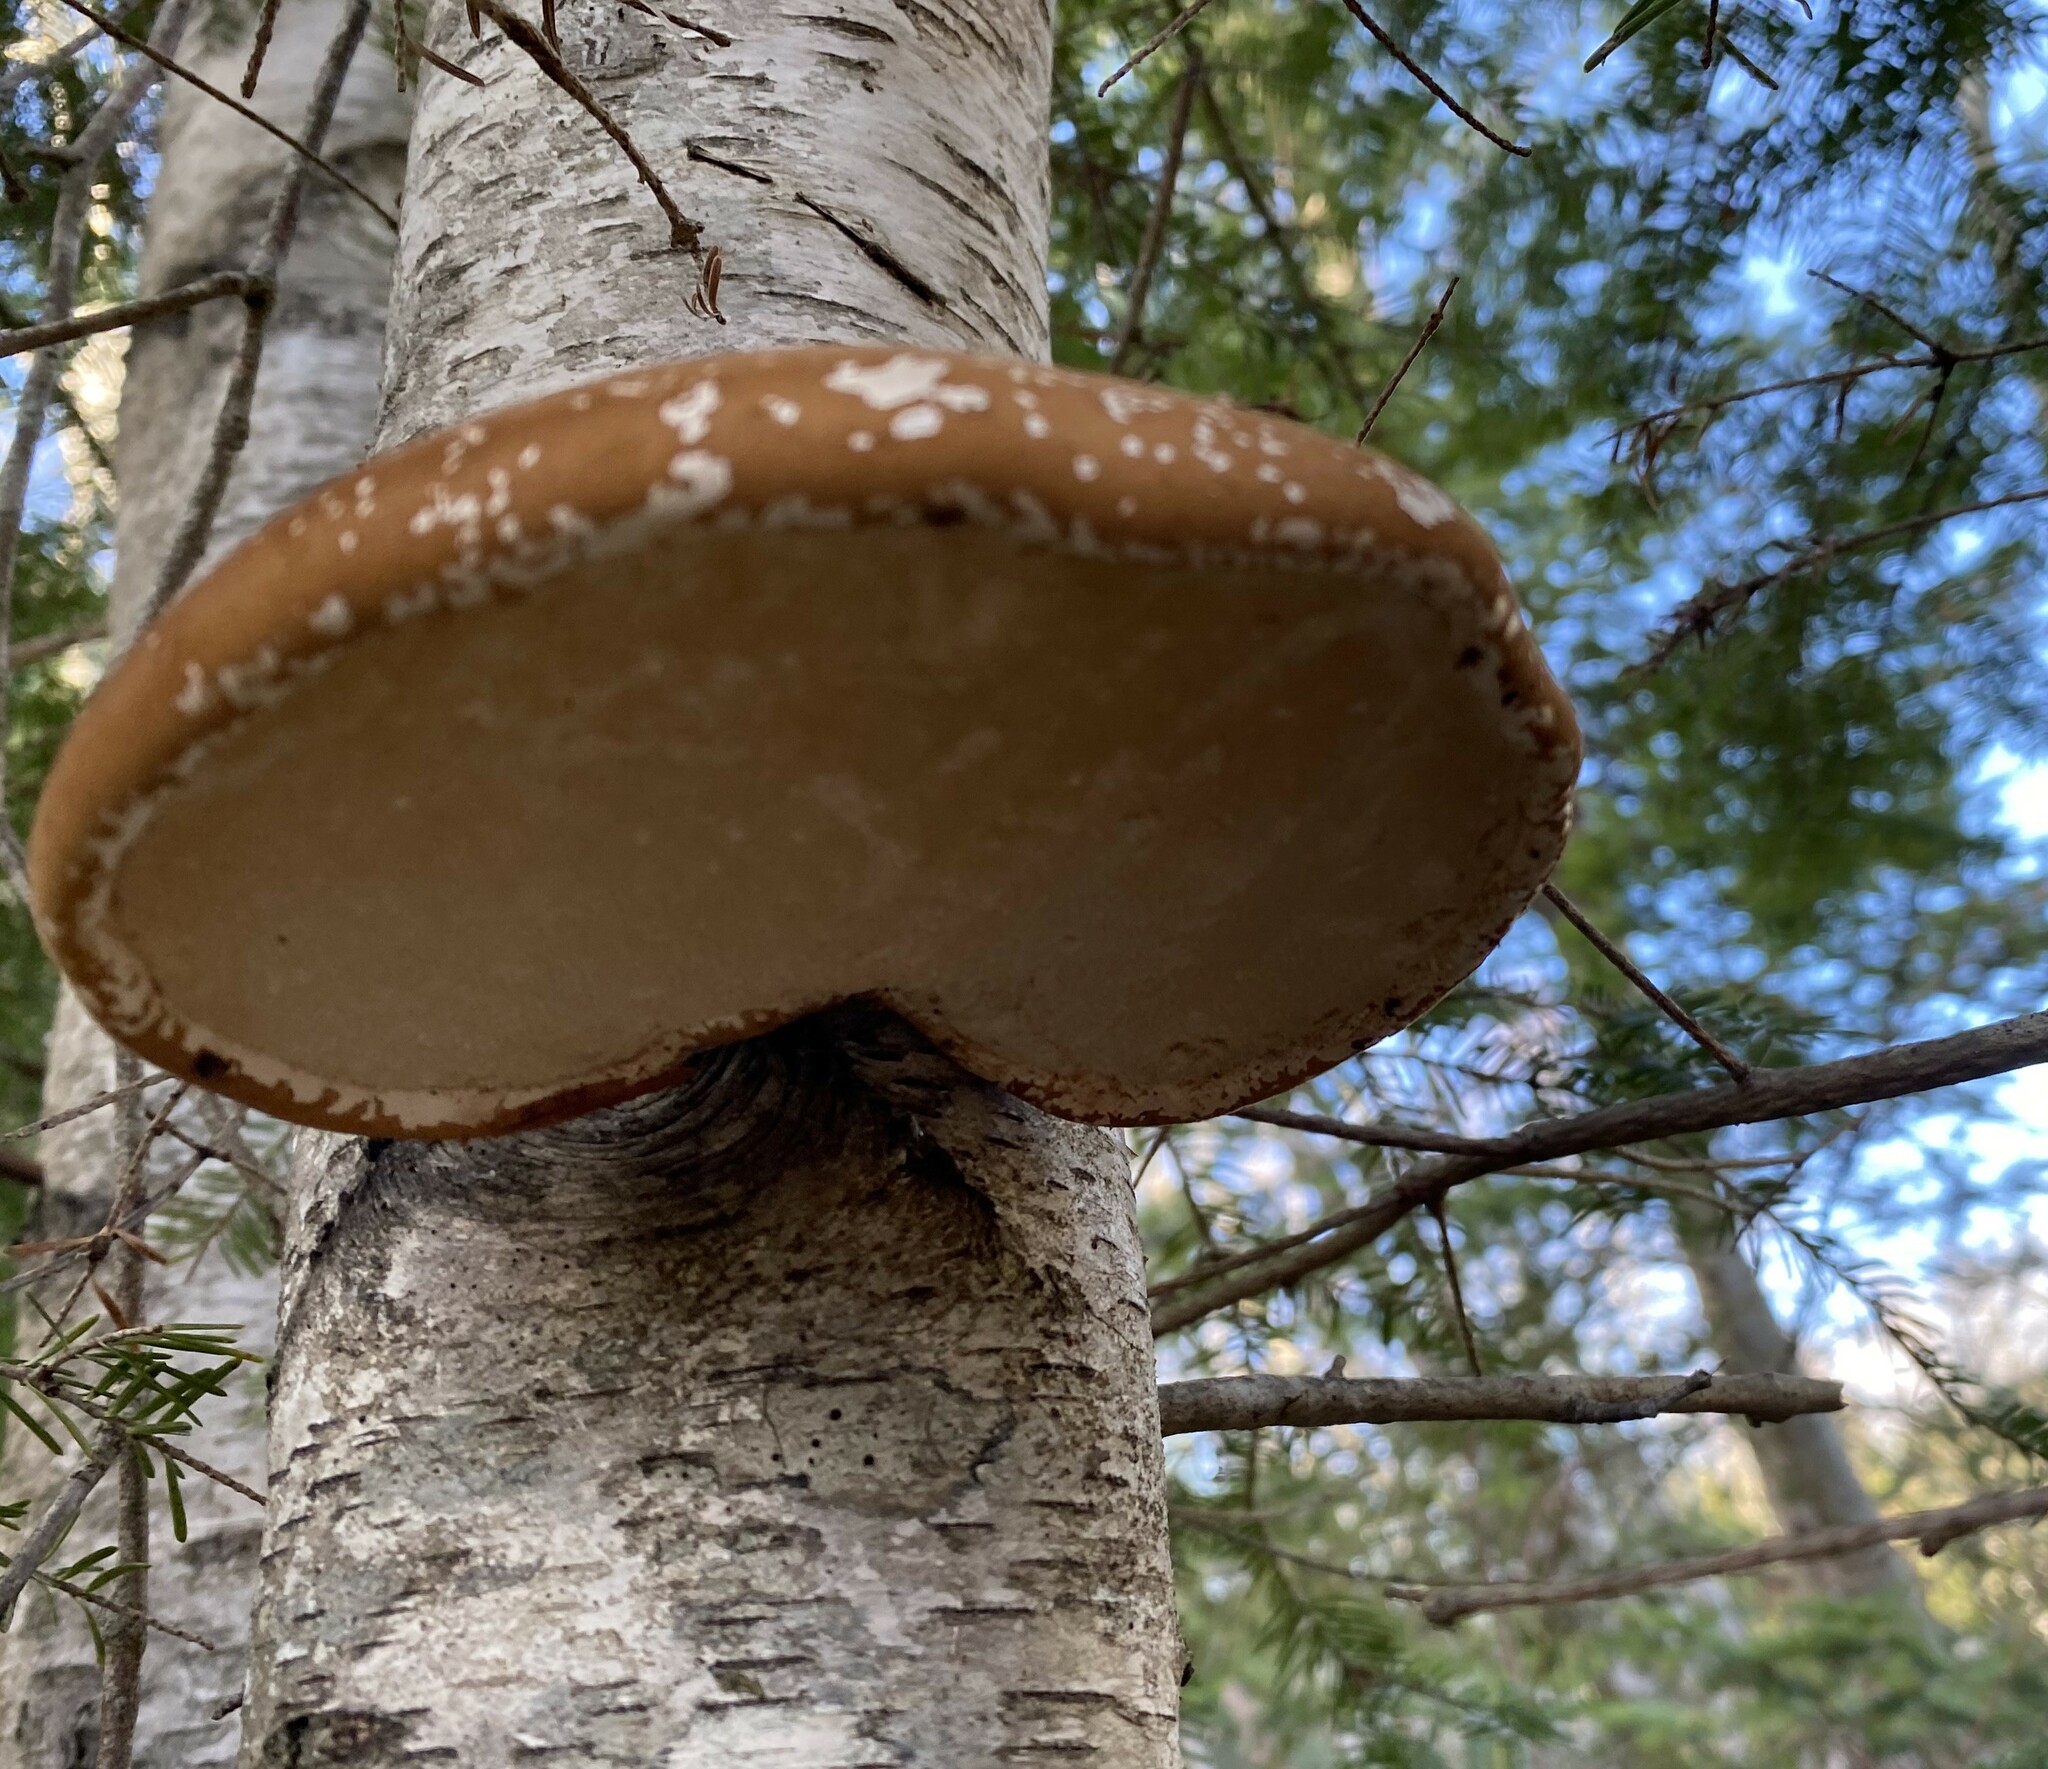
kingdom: Fungi
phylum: Basidiomycota
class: Agaricomycetes
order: Polyporales
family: Fomitopsidaceae
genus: Fomitopsis
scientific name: Fomitopsis betulina
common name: Birch polypore
